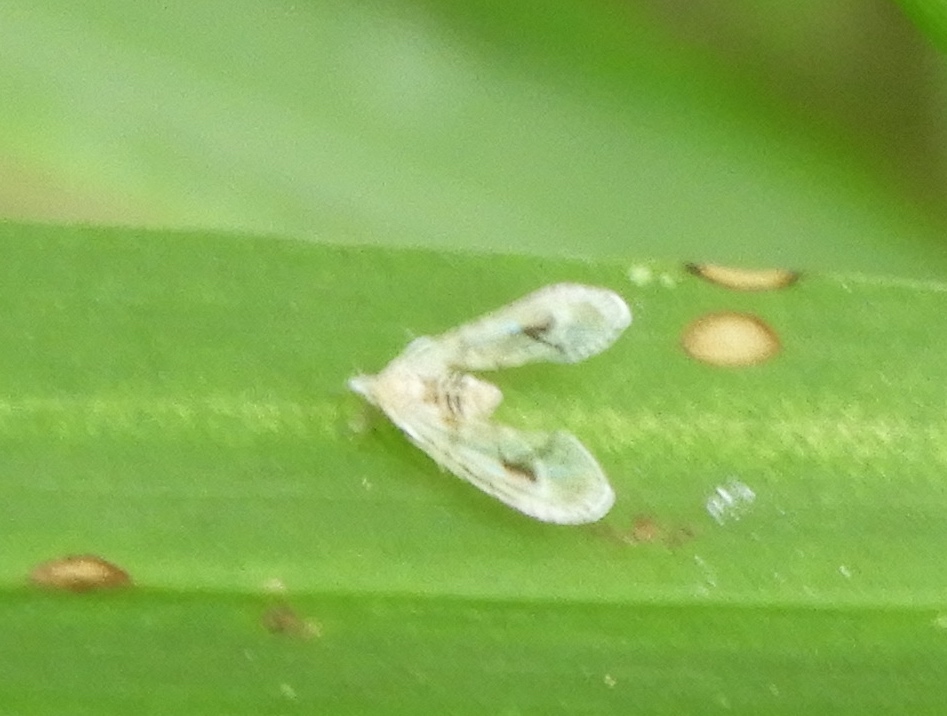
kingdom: Animalia
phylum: Arthropoda
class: Insecta
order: Hemiptera
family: Derbidae
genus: Anotia
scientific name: Anotia
